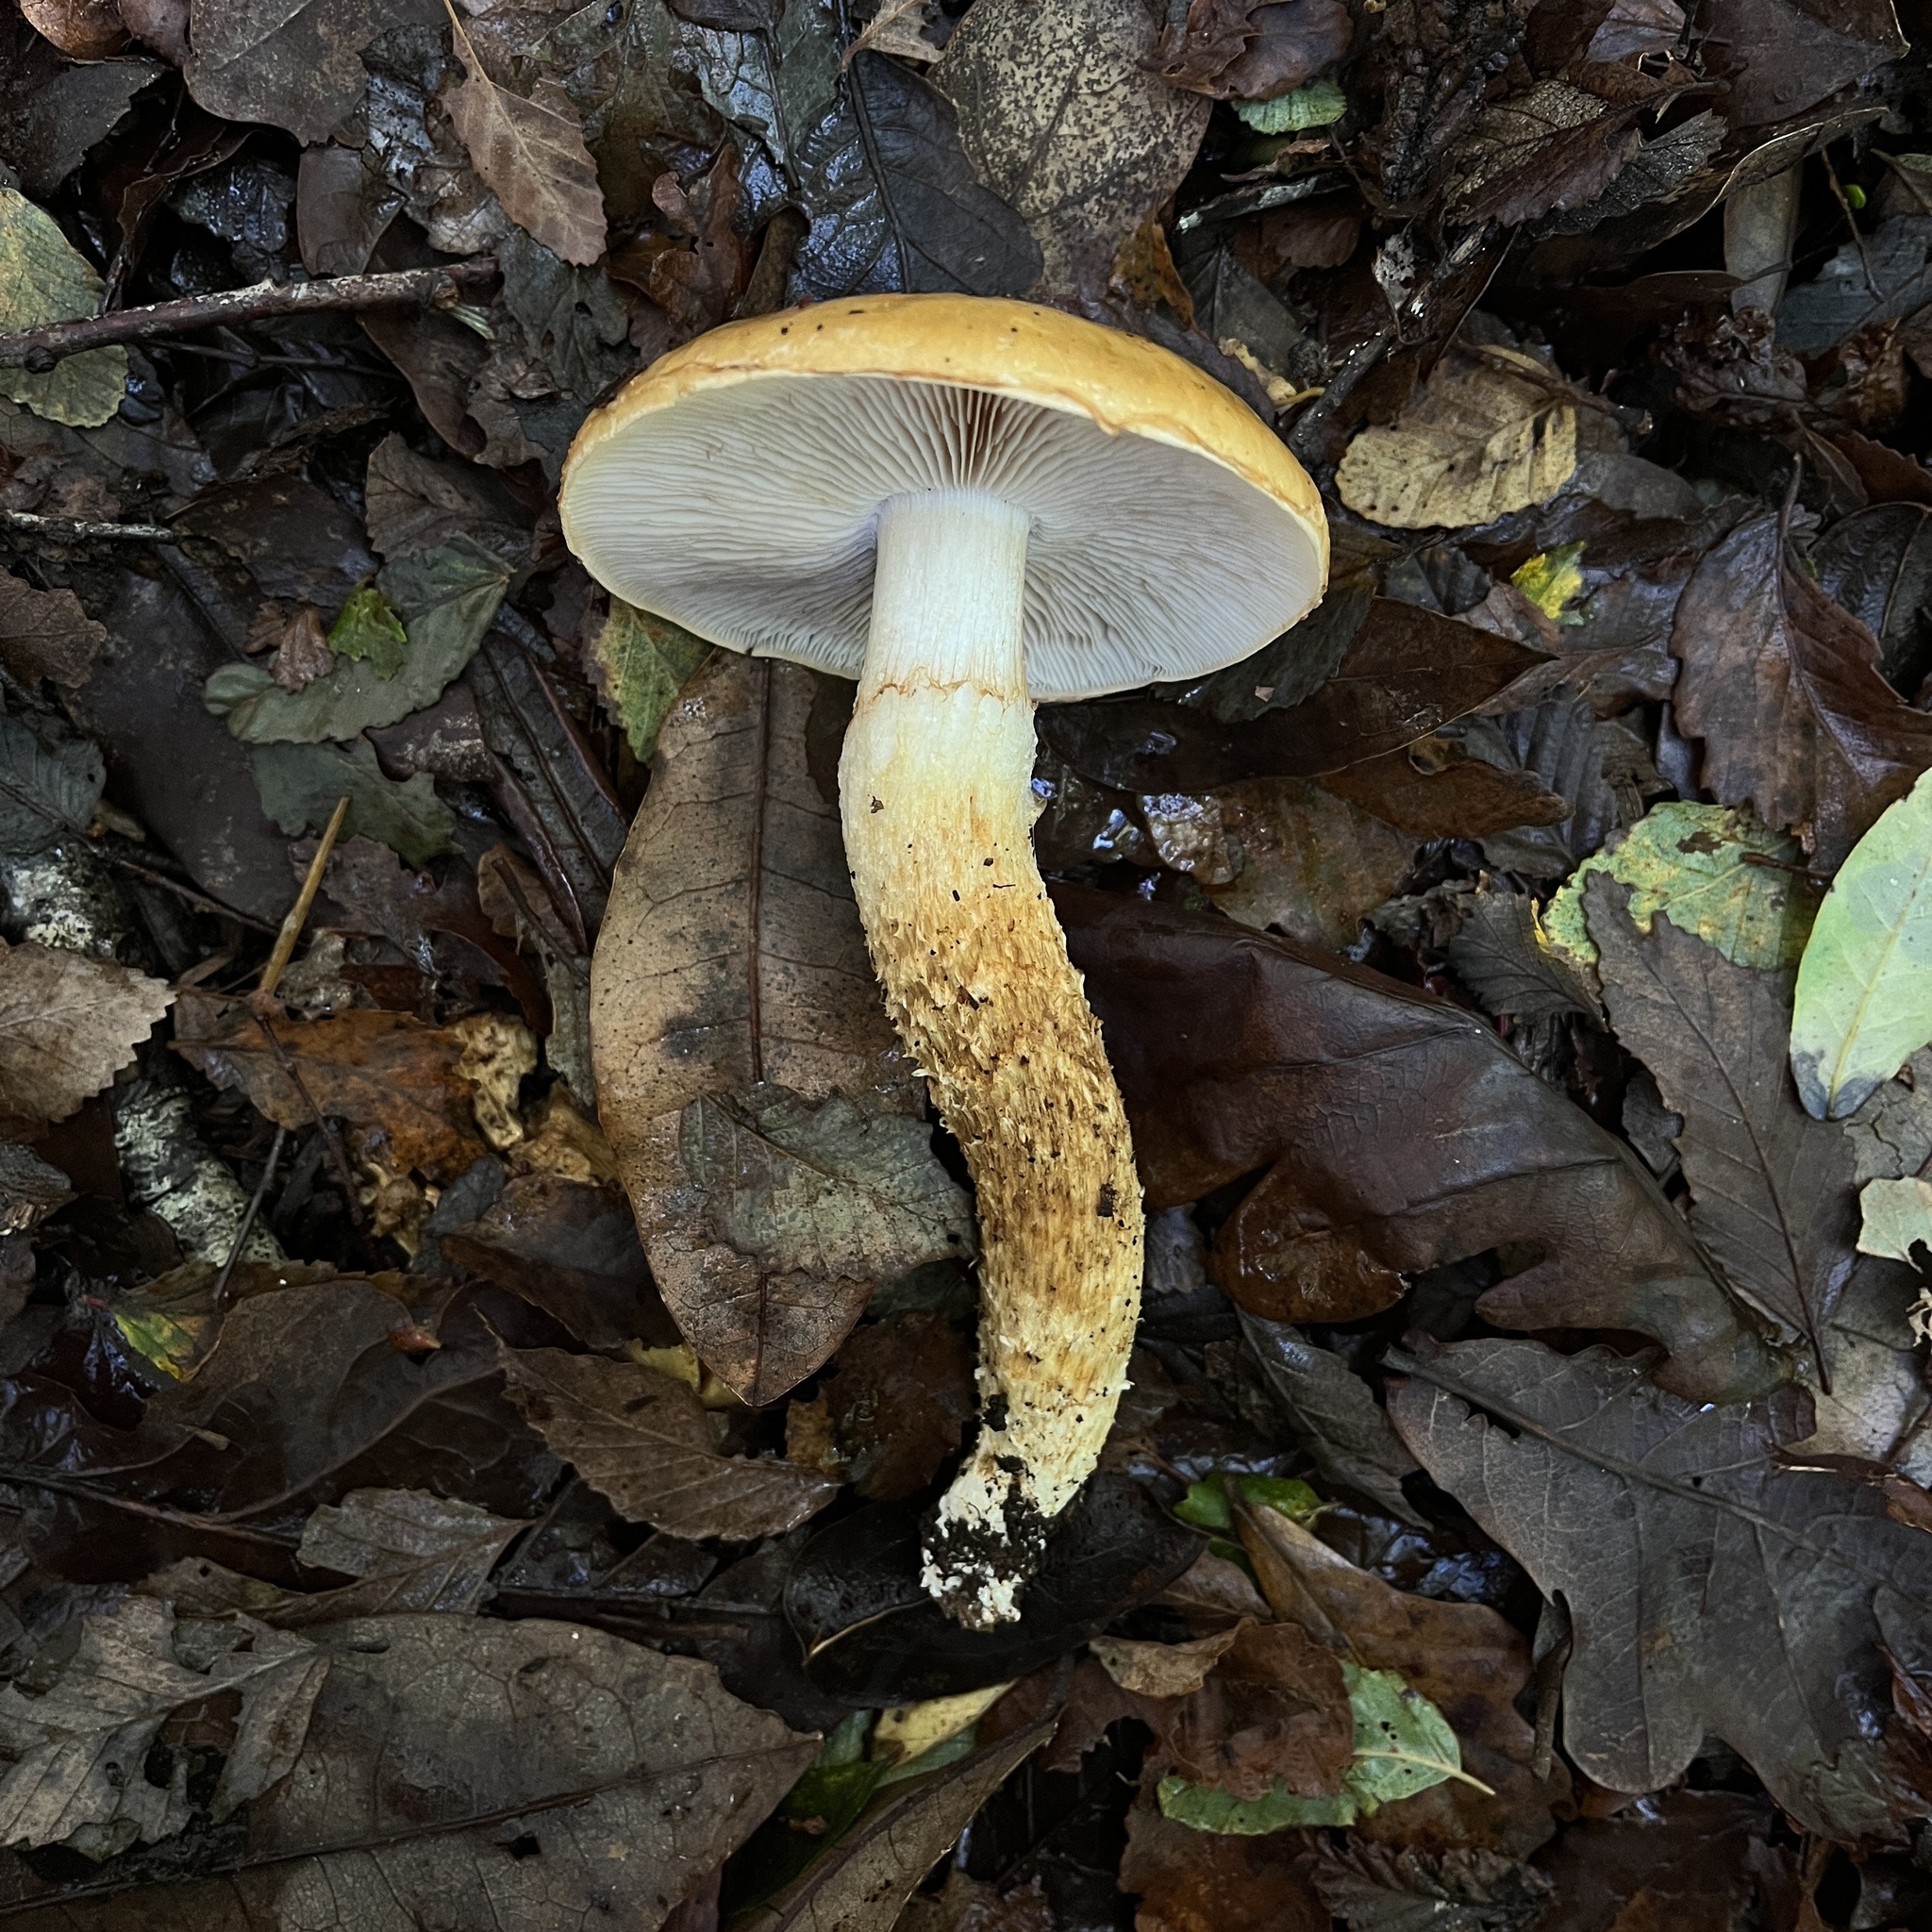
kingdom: Fungi
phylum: Basidiomycota
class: Agaricomycetes
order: Agaricales
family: Cortinariaceae
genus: Thaxterogaster
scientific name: Thaxterogaster pseudotriumphans
